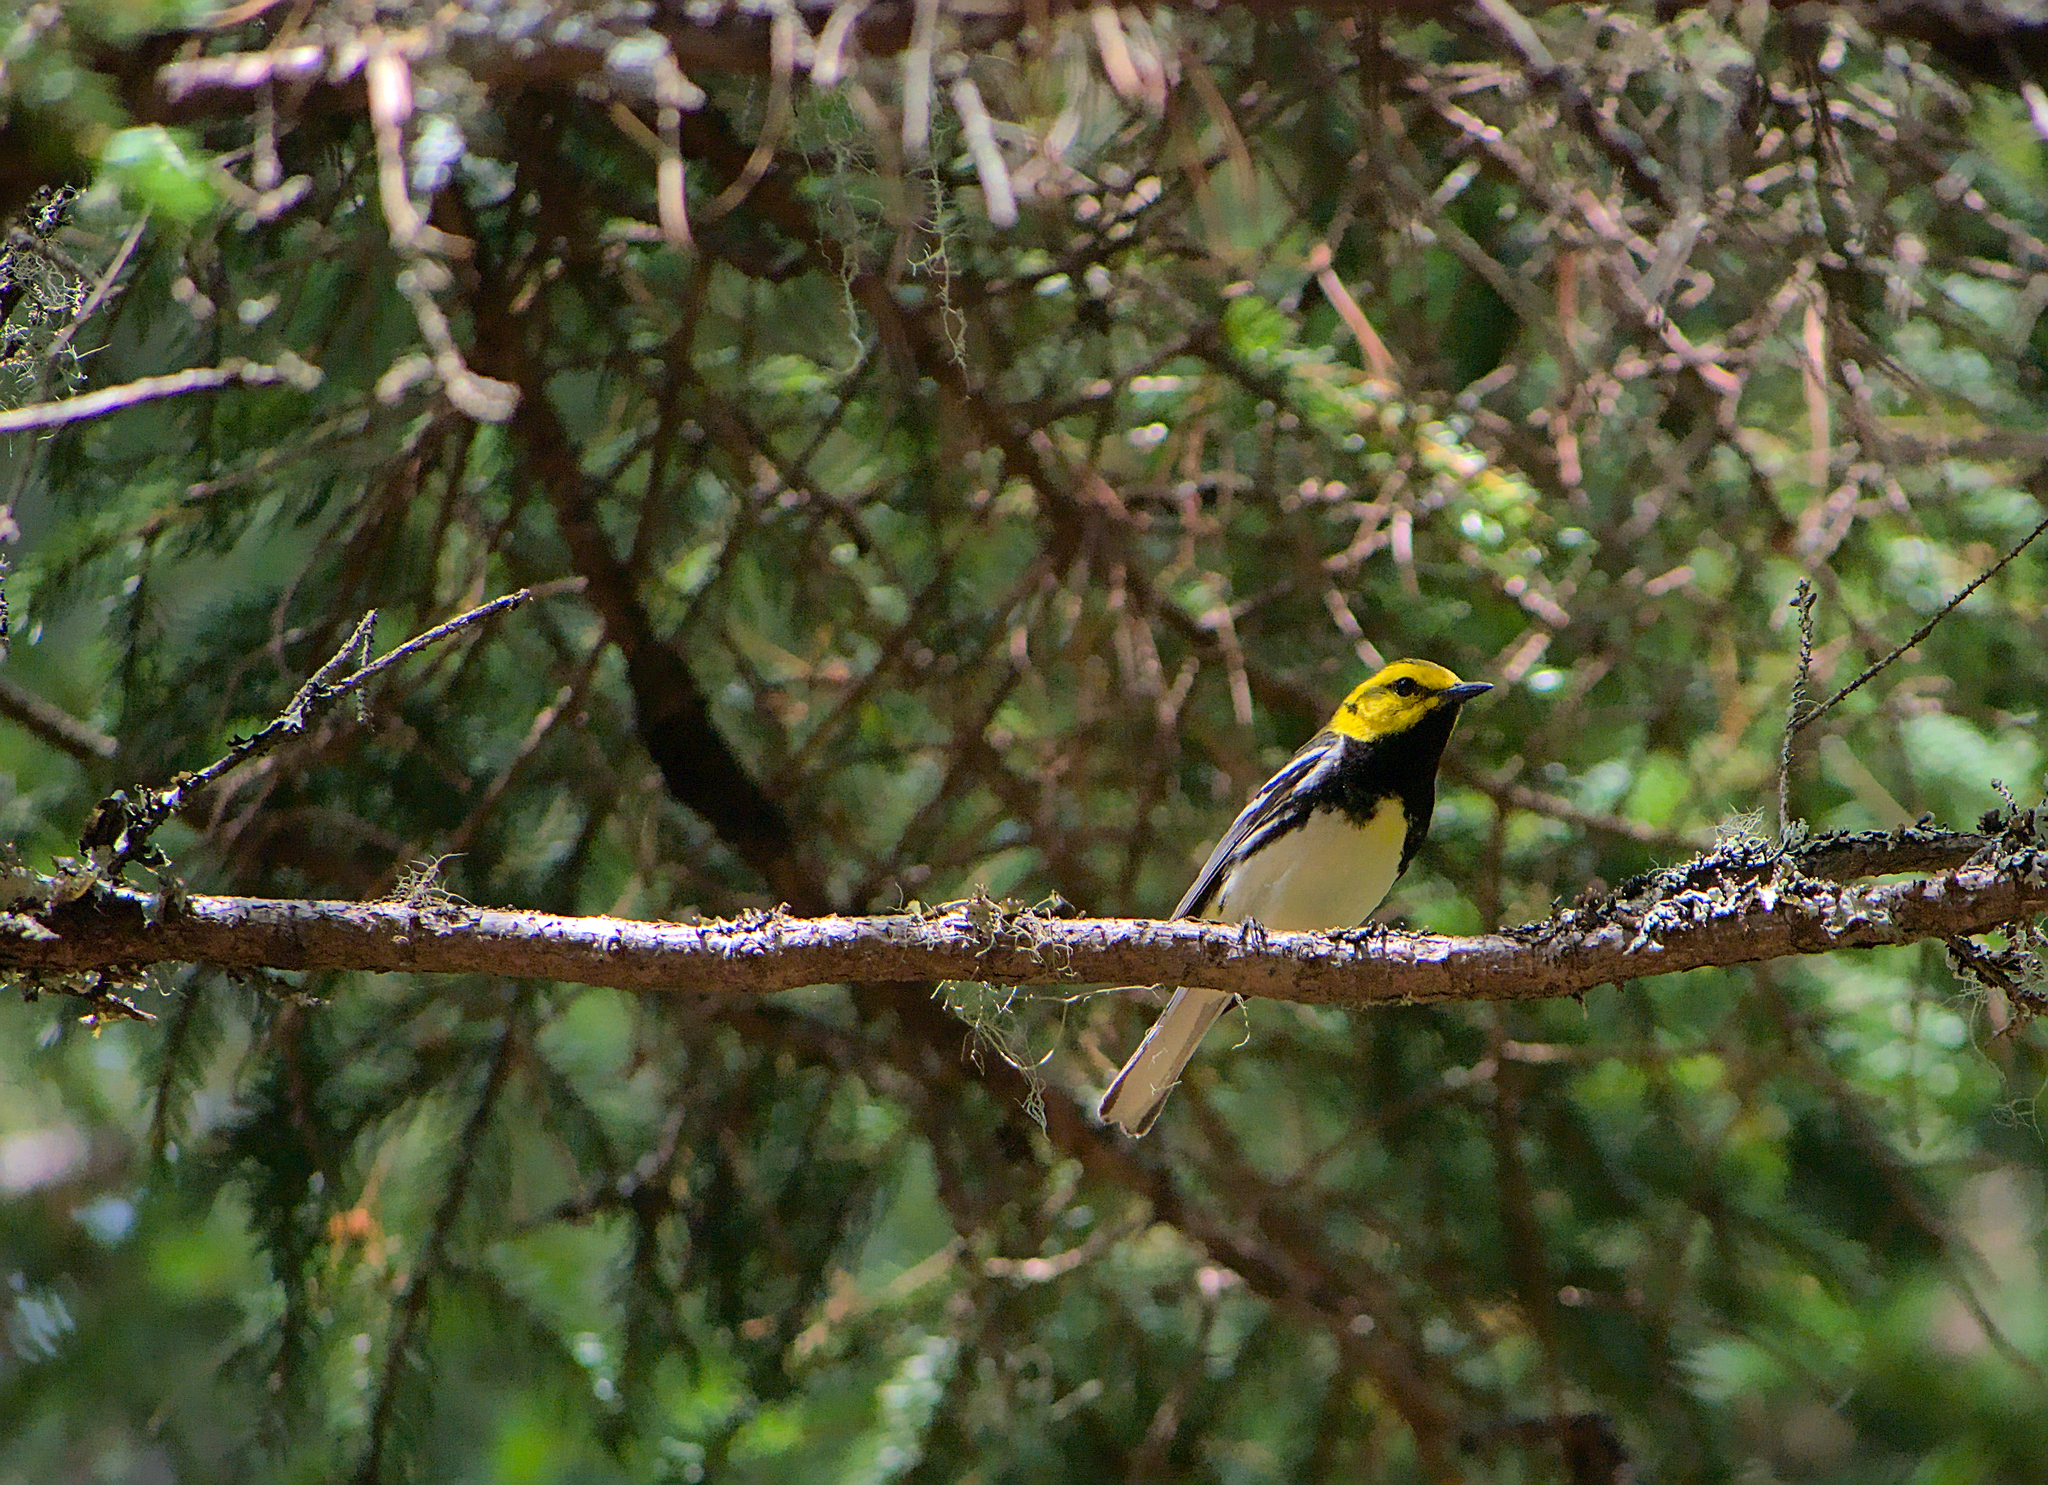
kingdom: Animalia
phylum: Chordata
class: Aves
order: Passeriformes
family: Parulidae
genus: Setophaga
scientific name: Setophaga virens
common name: Black-throated green warbler
